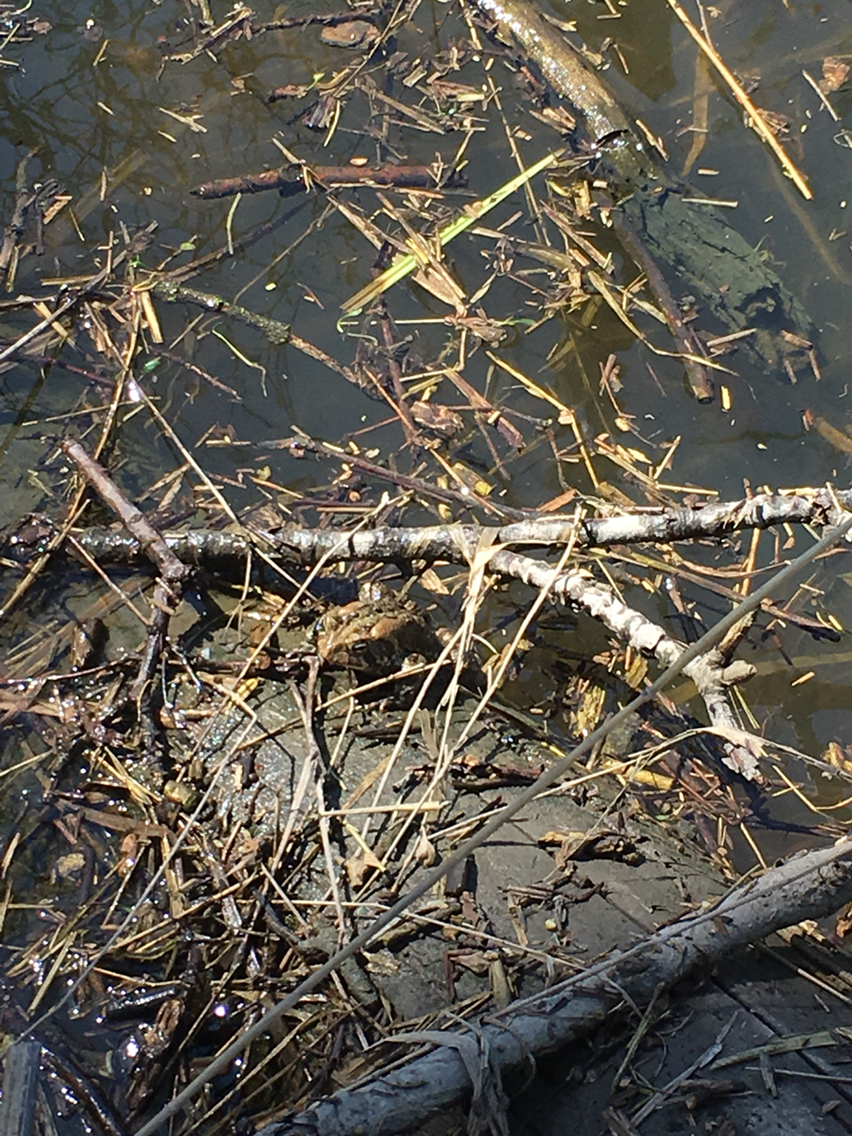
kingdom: Animalia
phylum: Chordata
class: Amphibia
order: Anura
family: Bufonidae
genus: Anaxyrus
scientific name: Anaxyrus americanus
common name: American toad
